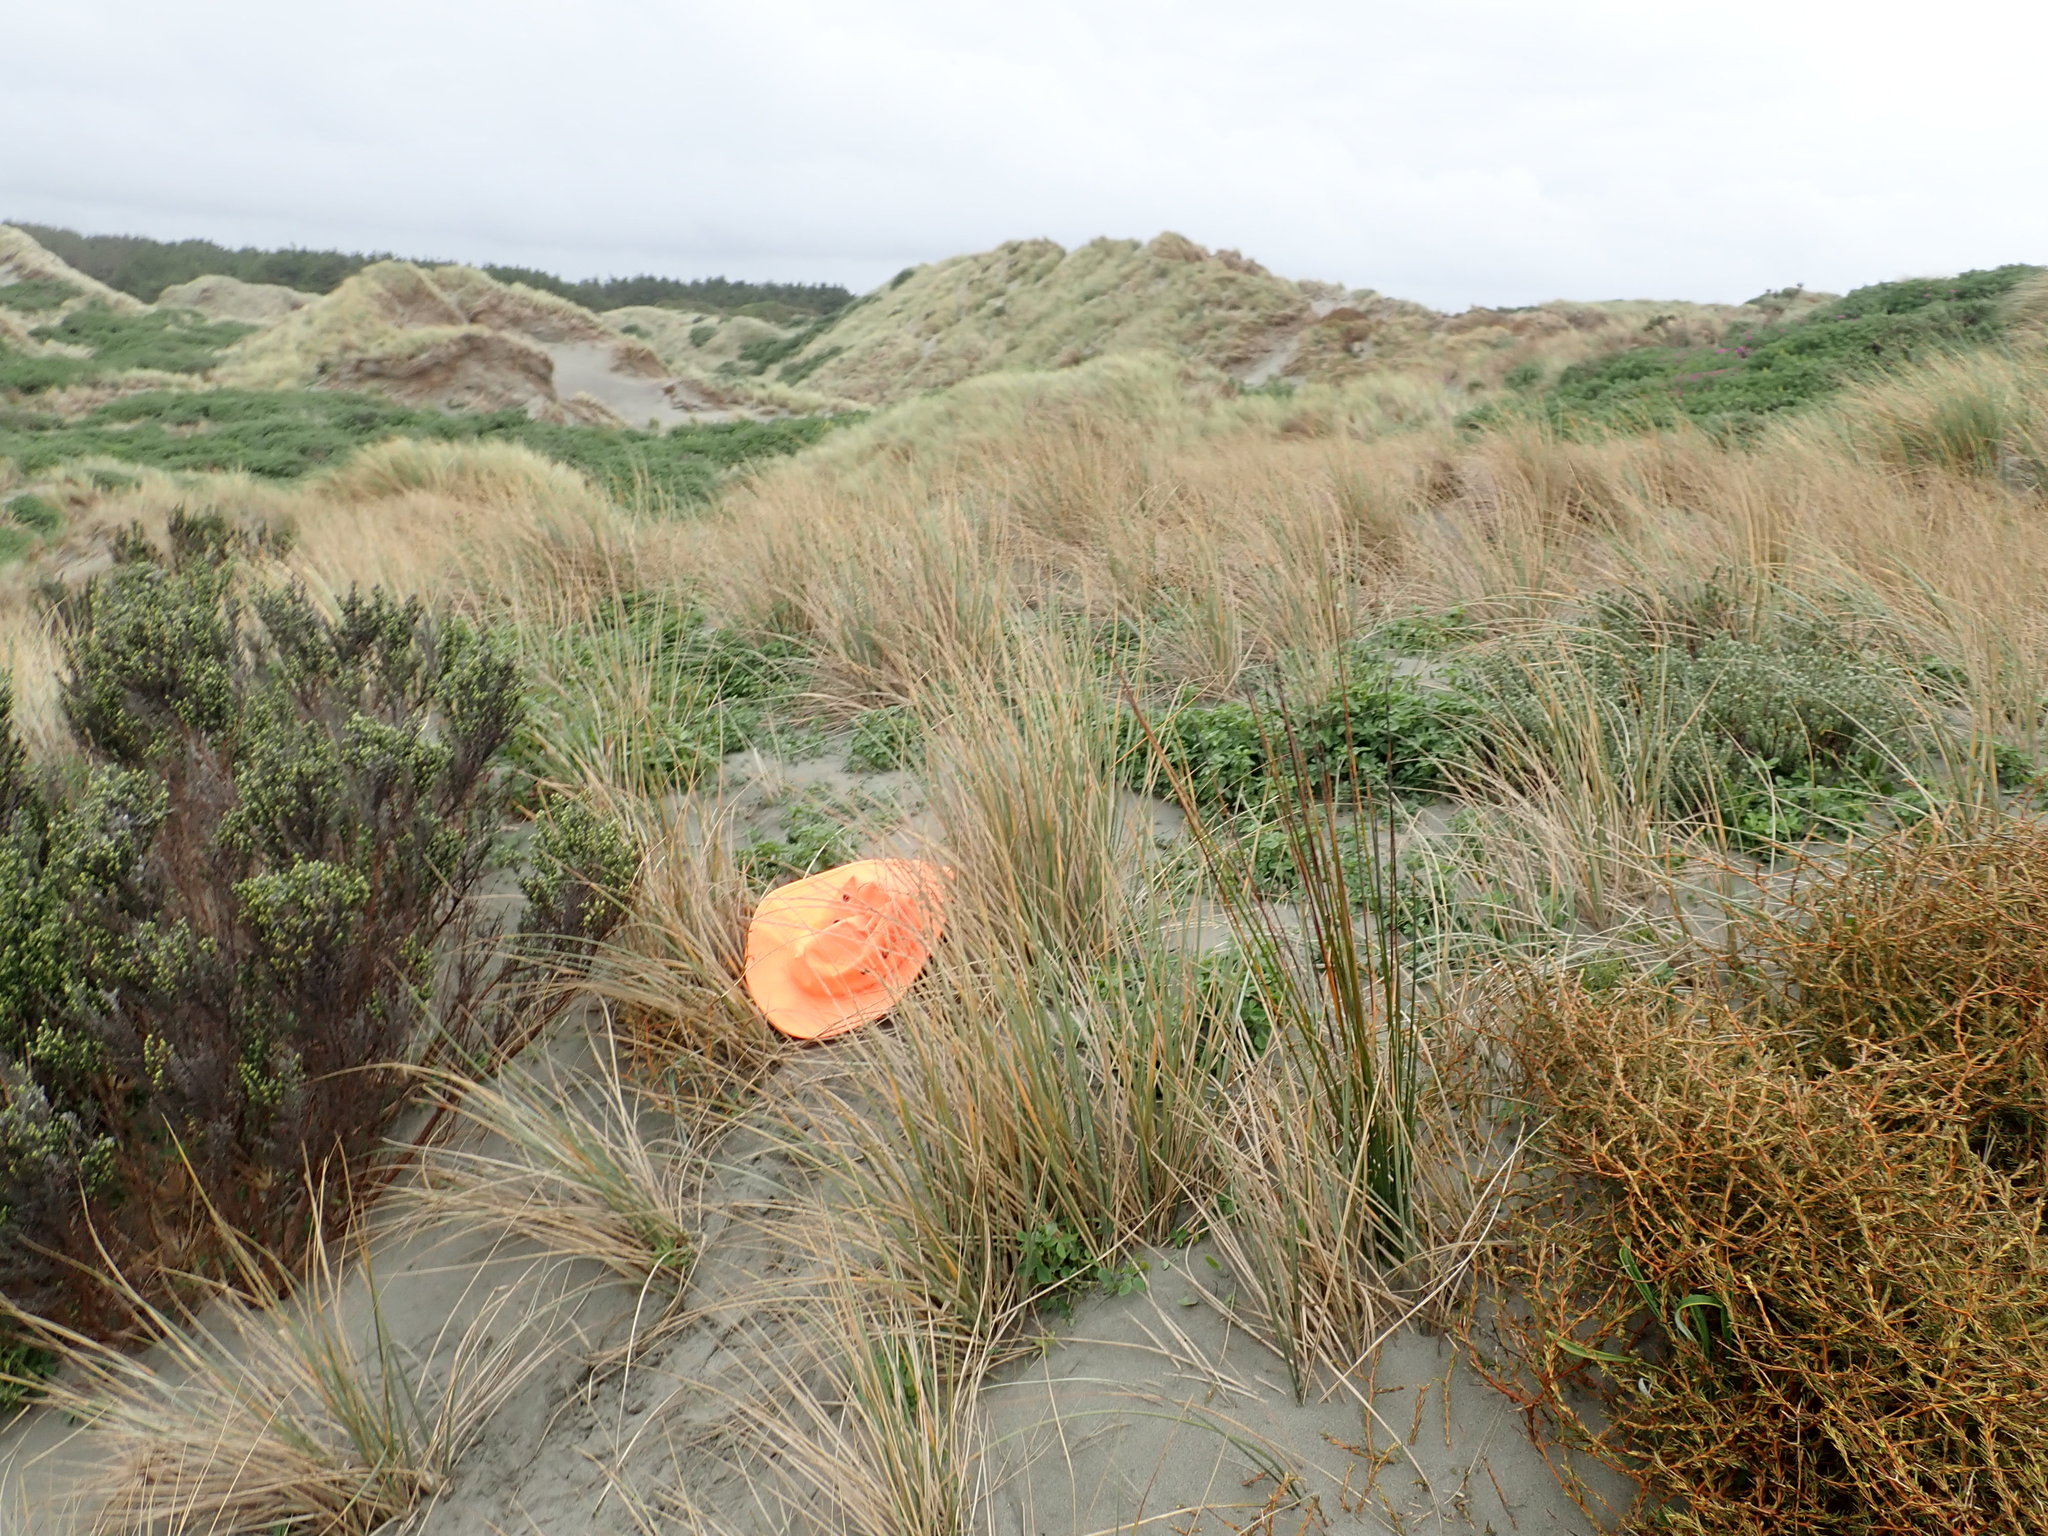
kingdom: Animalia
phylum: Arthropoda
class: Arachnida
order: Araneae
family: Thomisidae
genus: Sidymella
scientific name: Sidymella trapezia
